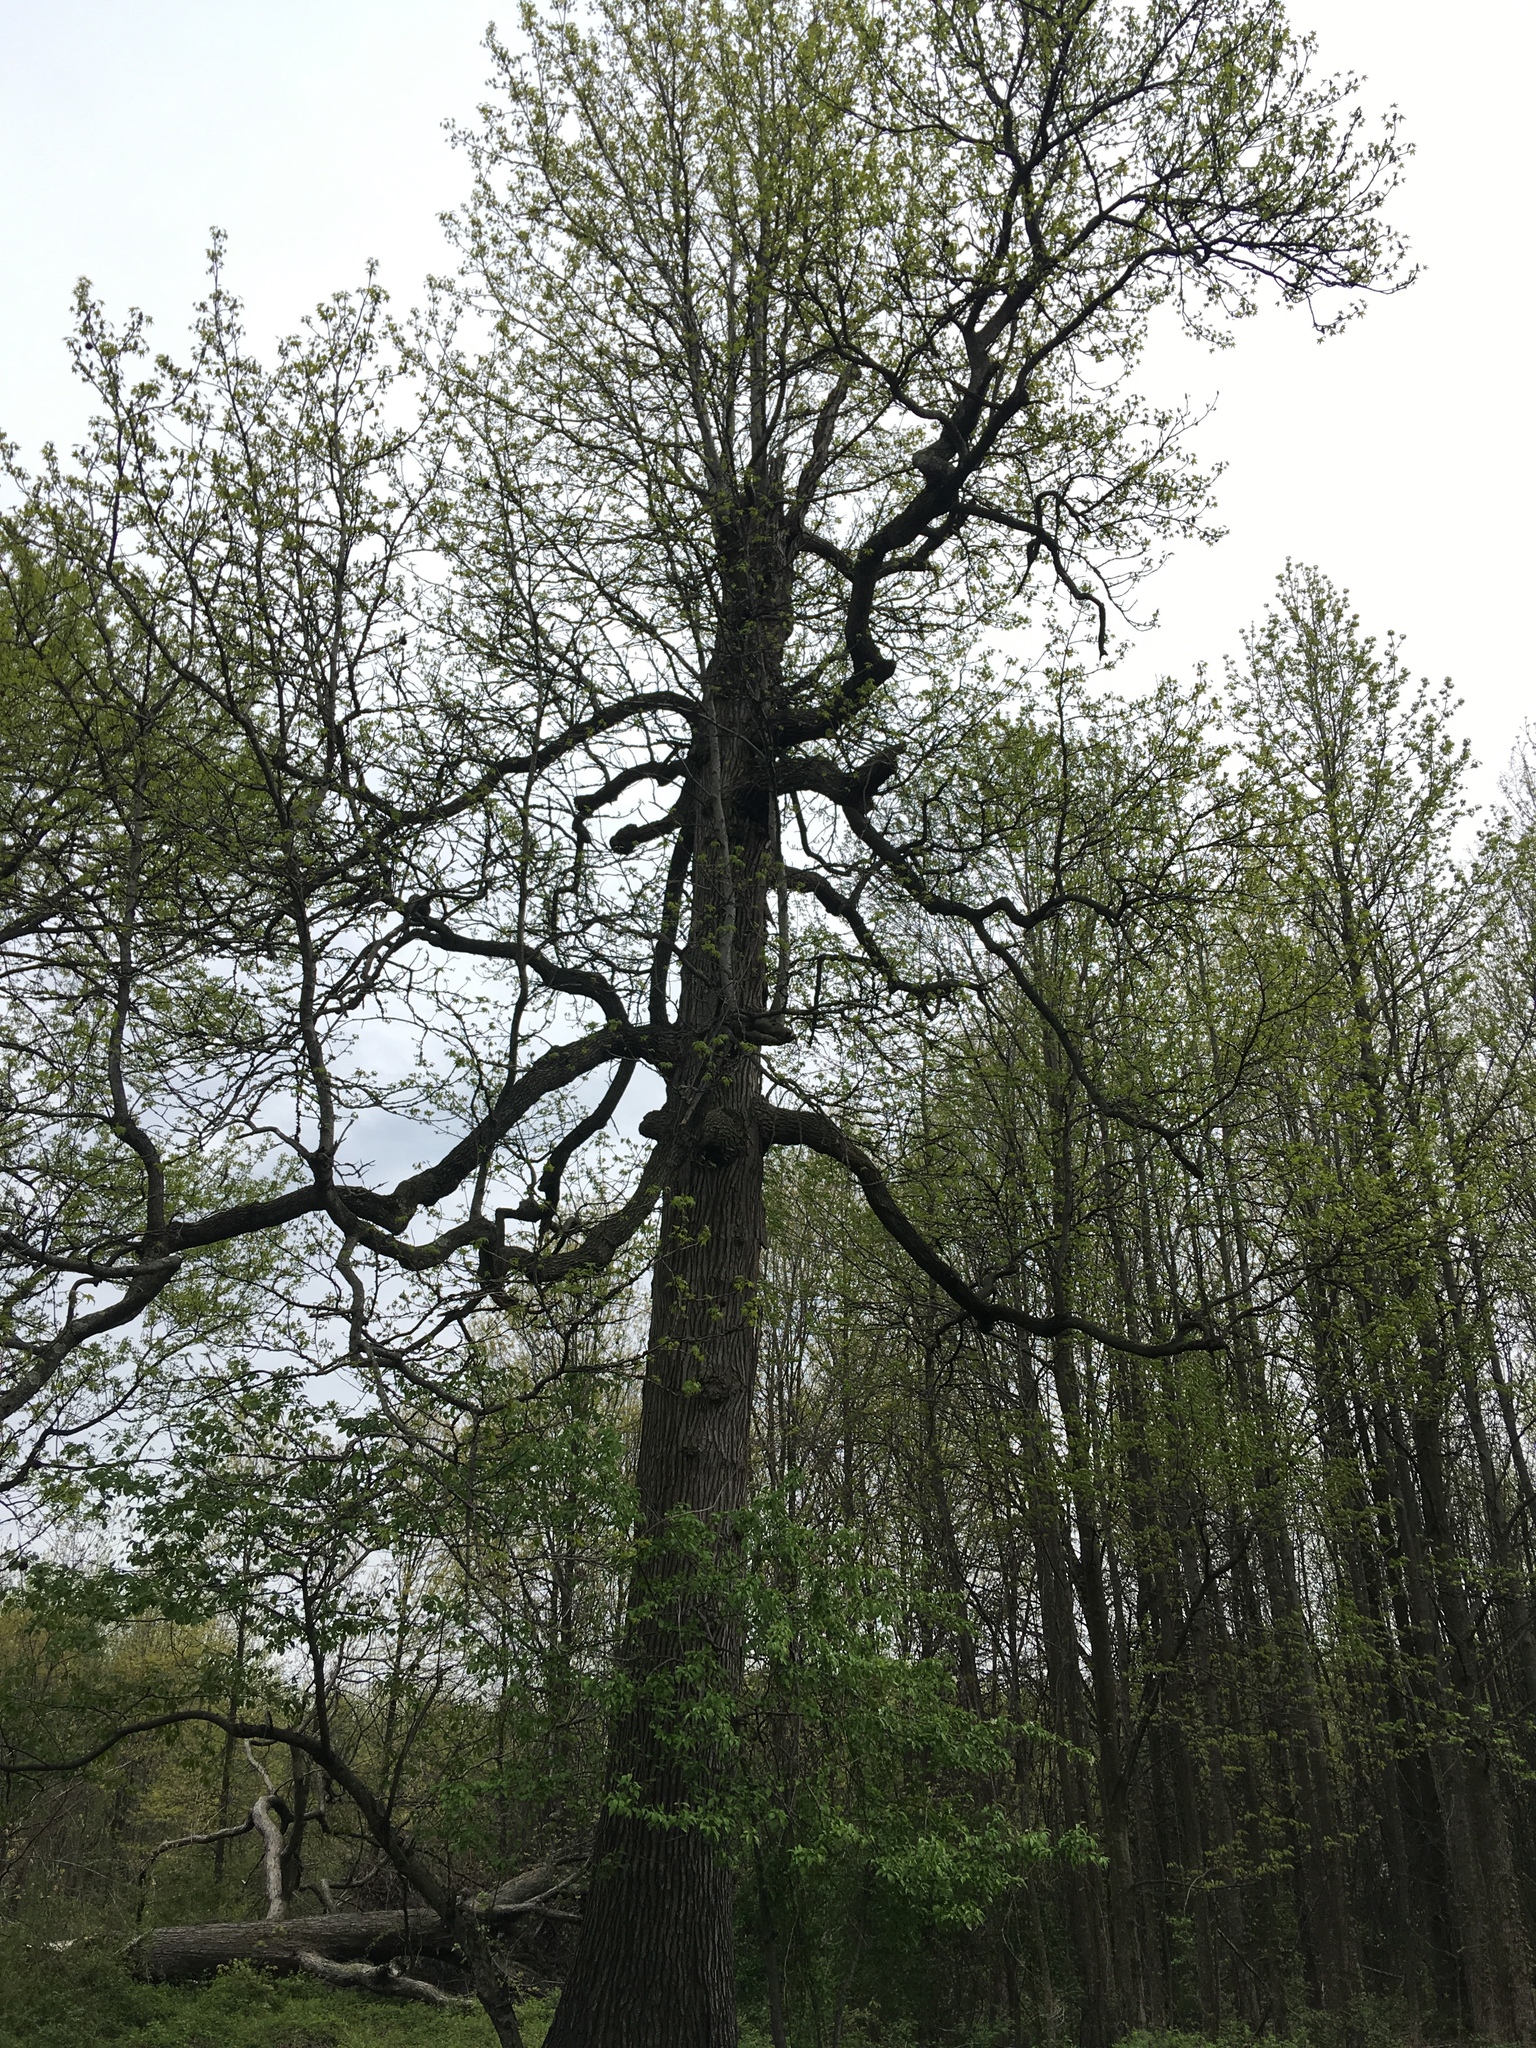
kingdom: Plantae
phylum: Tracheophyta
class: Magnoliopsida
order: Saxifragales
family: Altingiaceae
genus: Liquidambar
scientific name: Liquidambar styraciflua
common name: Sweet gum
